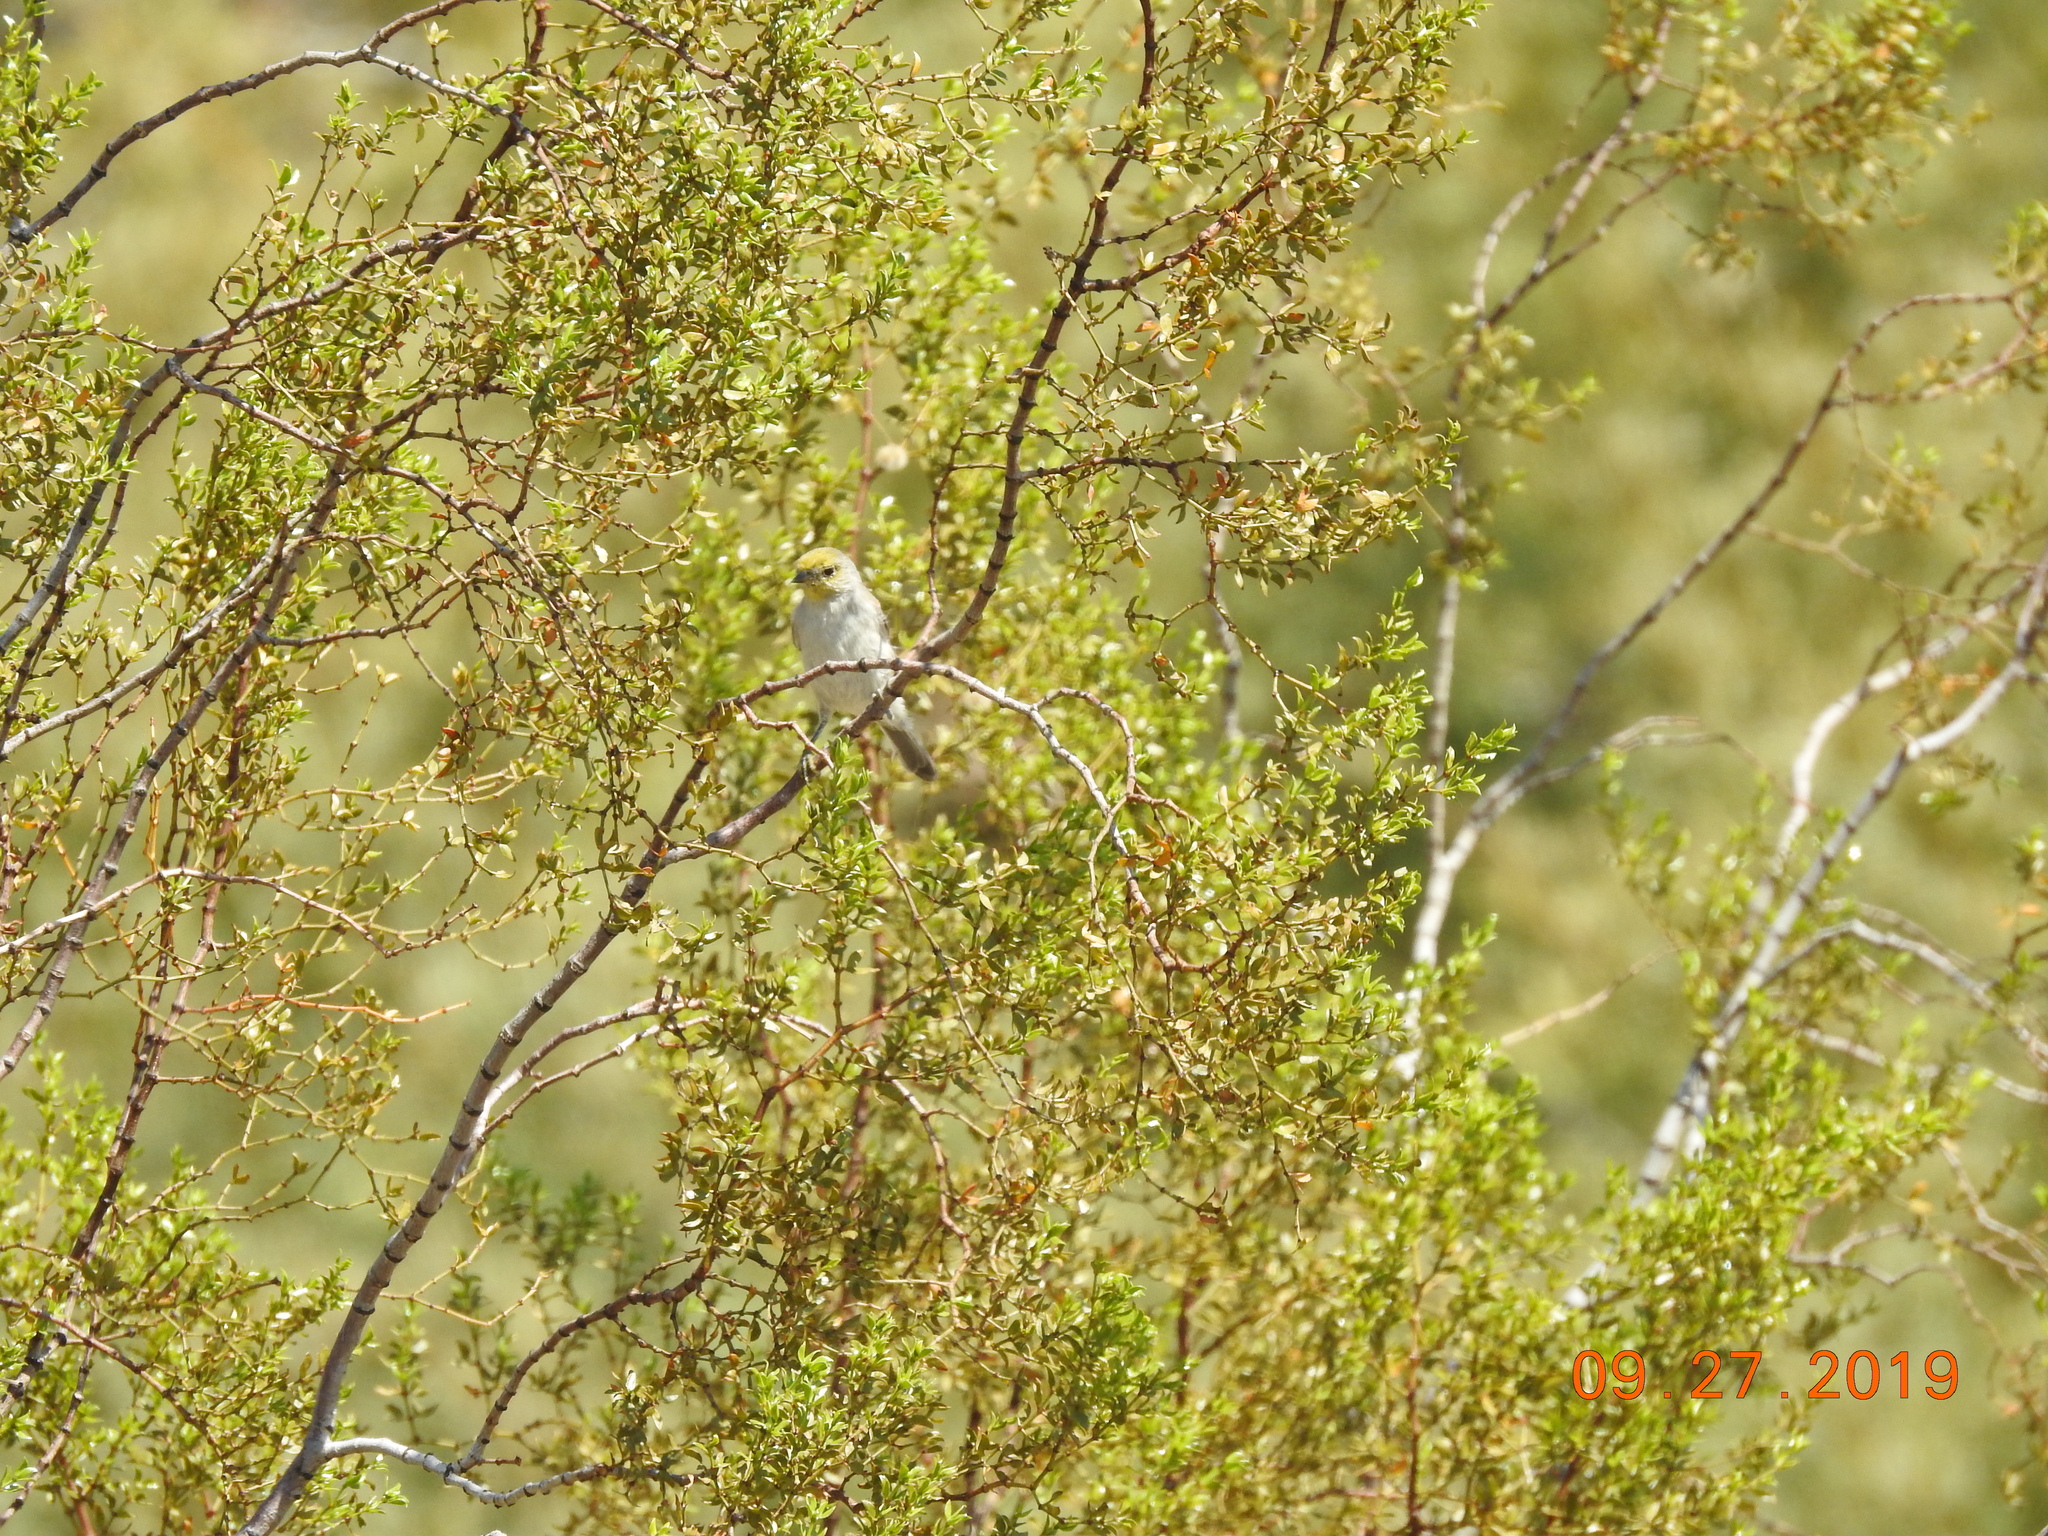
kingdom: Animalia
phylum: Chordata
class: Aves
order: Passeriformes
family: Remizidae
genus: Auriparus
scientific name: Auriparus flaviceps
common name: Verdin
